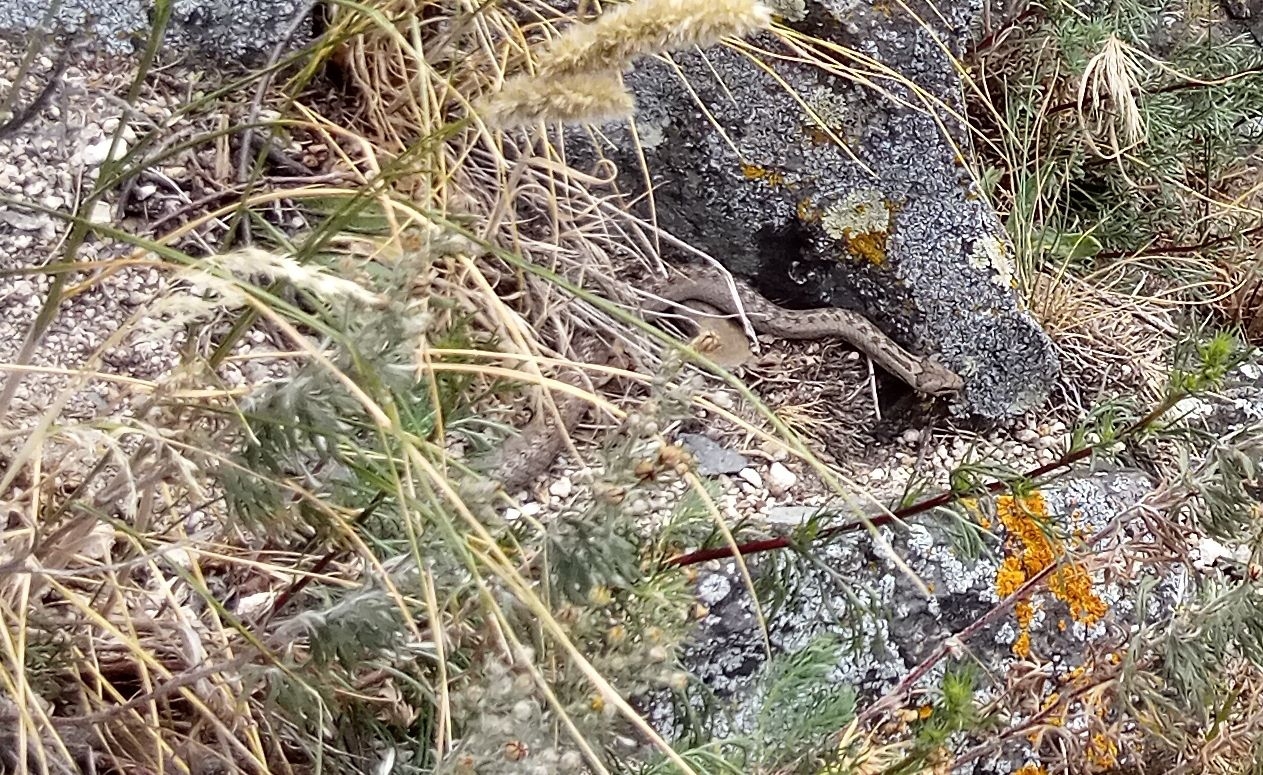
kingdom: Animalia
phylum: Chordata
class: Squamata
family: Colubridae
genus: Coronella
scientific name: Coronella austriaca
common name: Smooth snake
